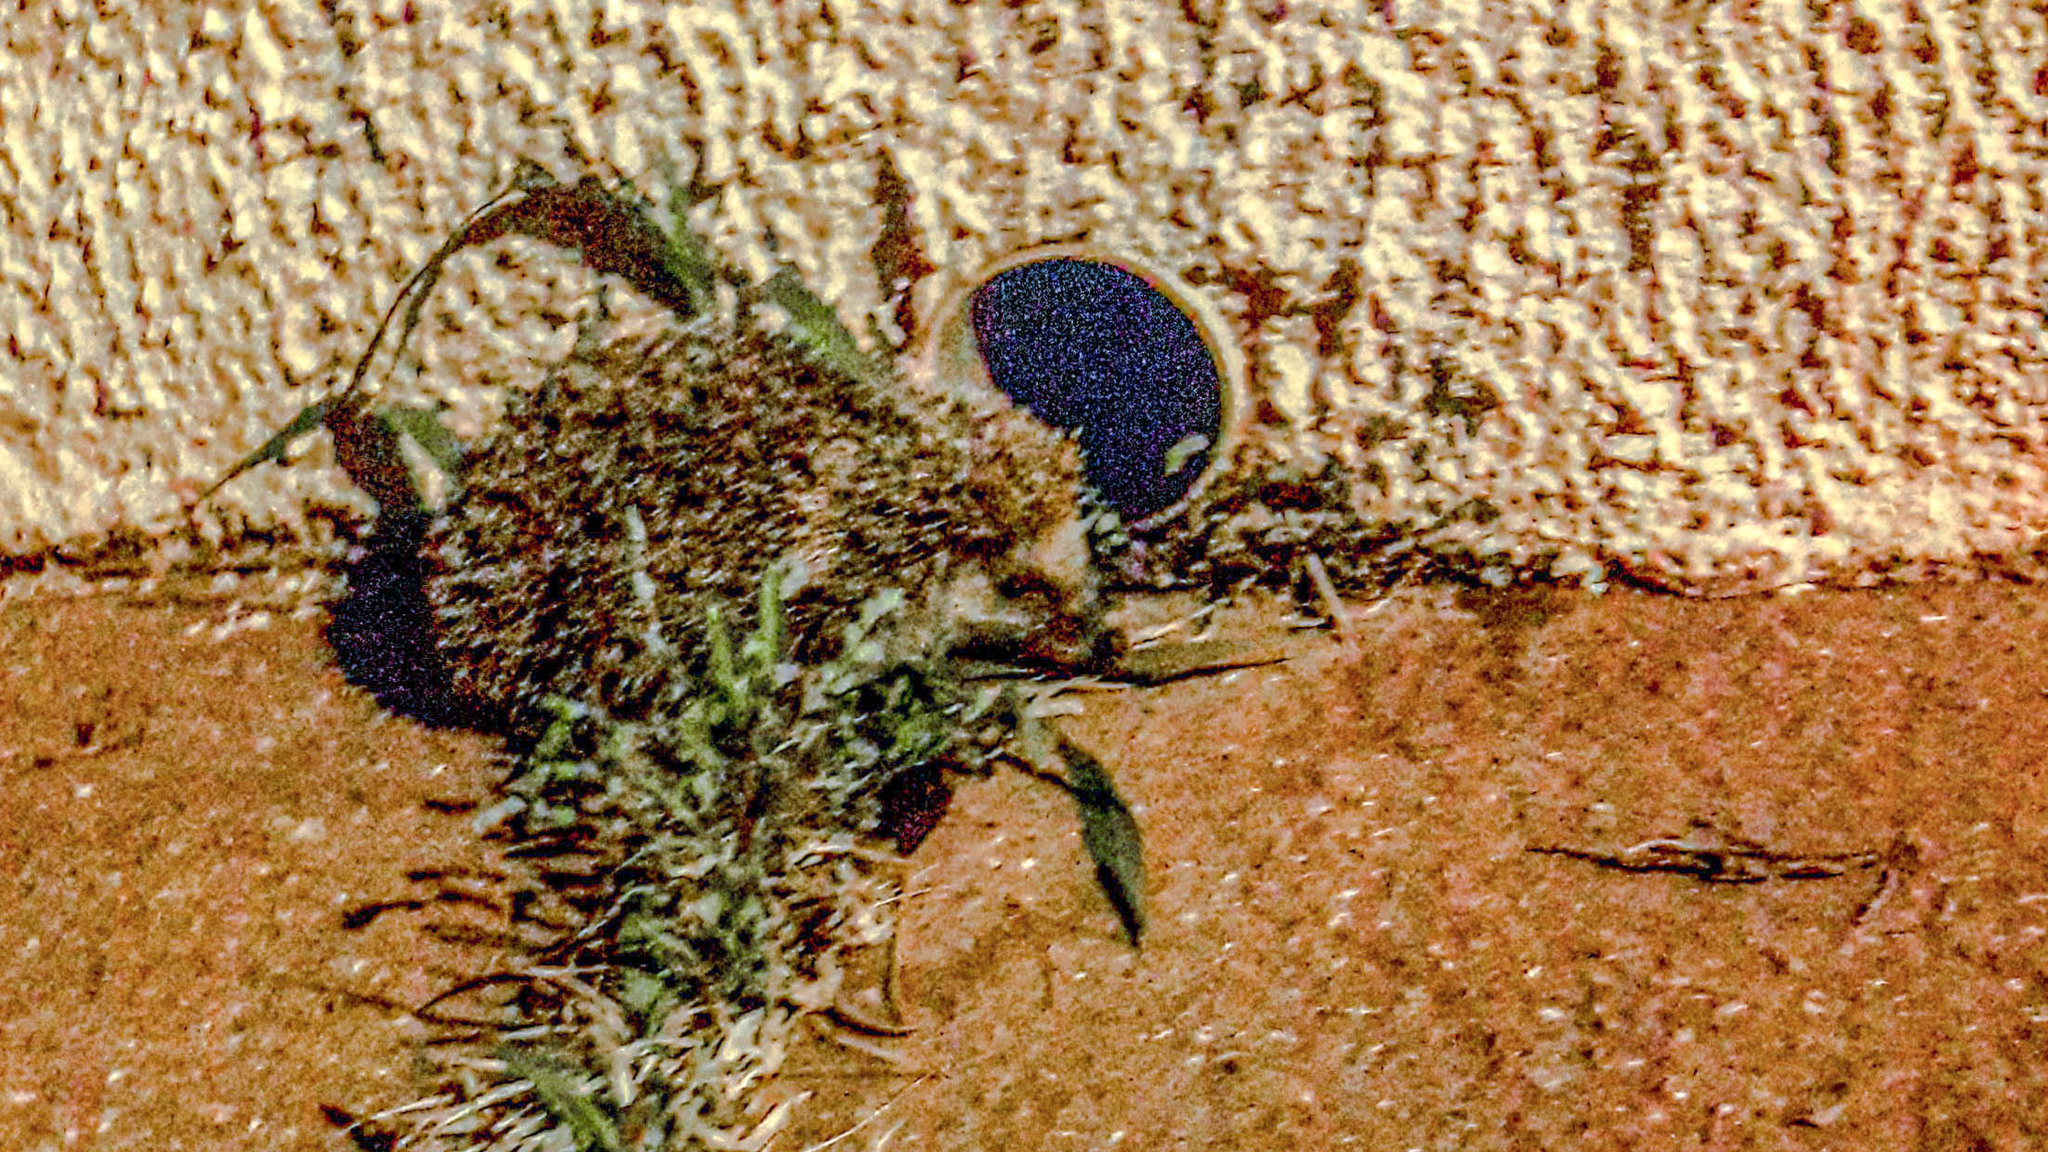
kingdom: Animalia
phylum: Chordata
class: Mammalia
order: Erinaceomorpha
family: Erinaceidae
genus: Erinaceus
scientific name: Erinaceus europaeus
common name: West european hedgehog
